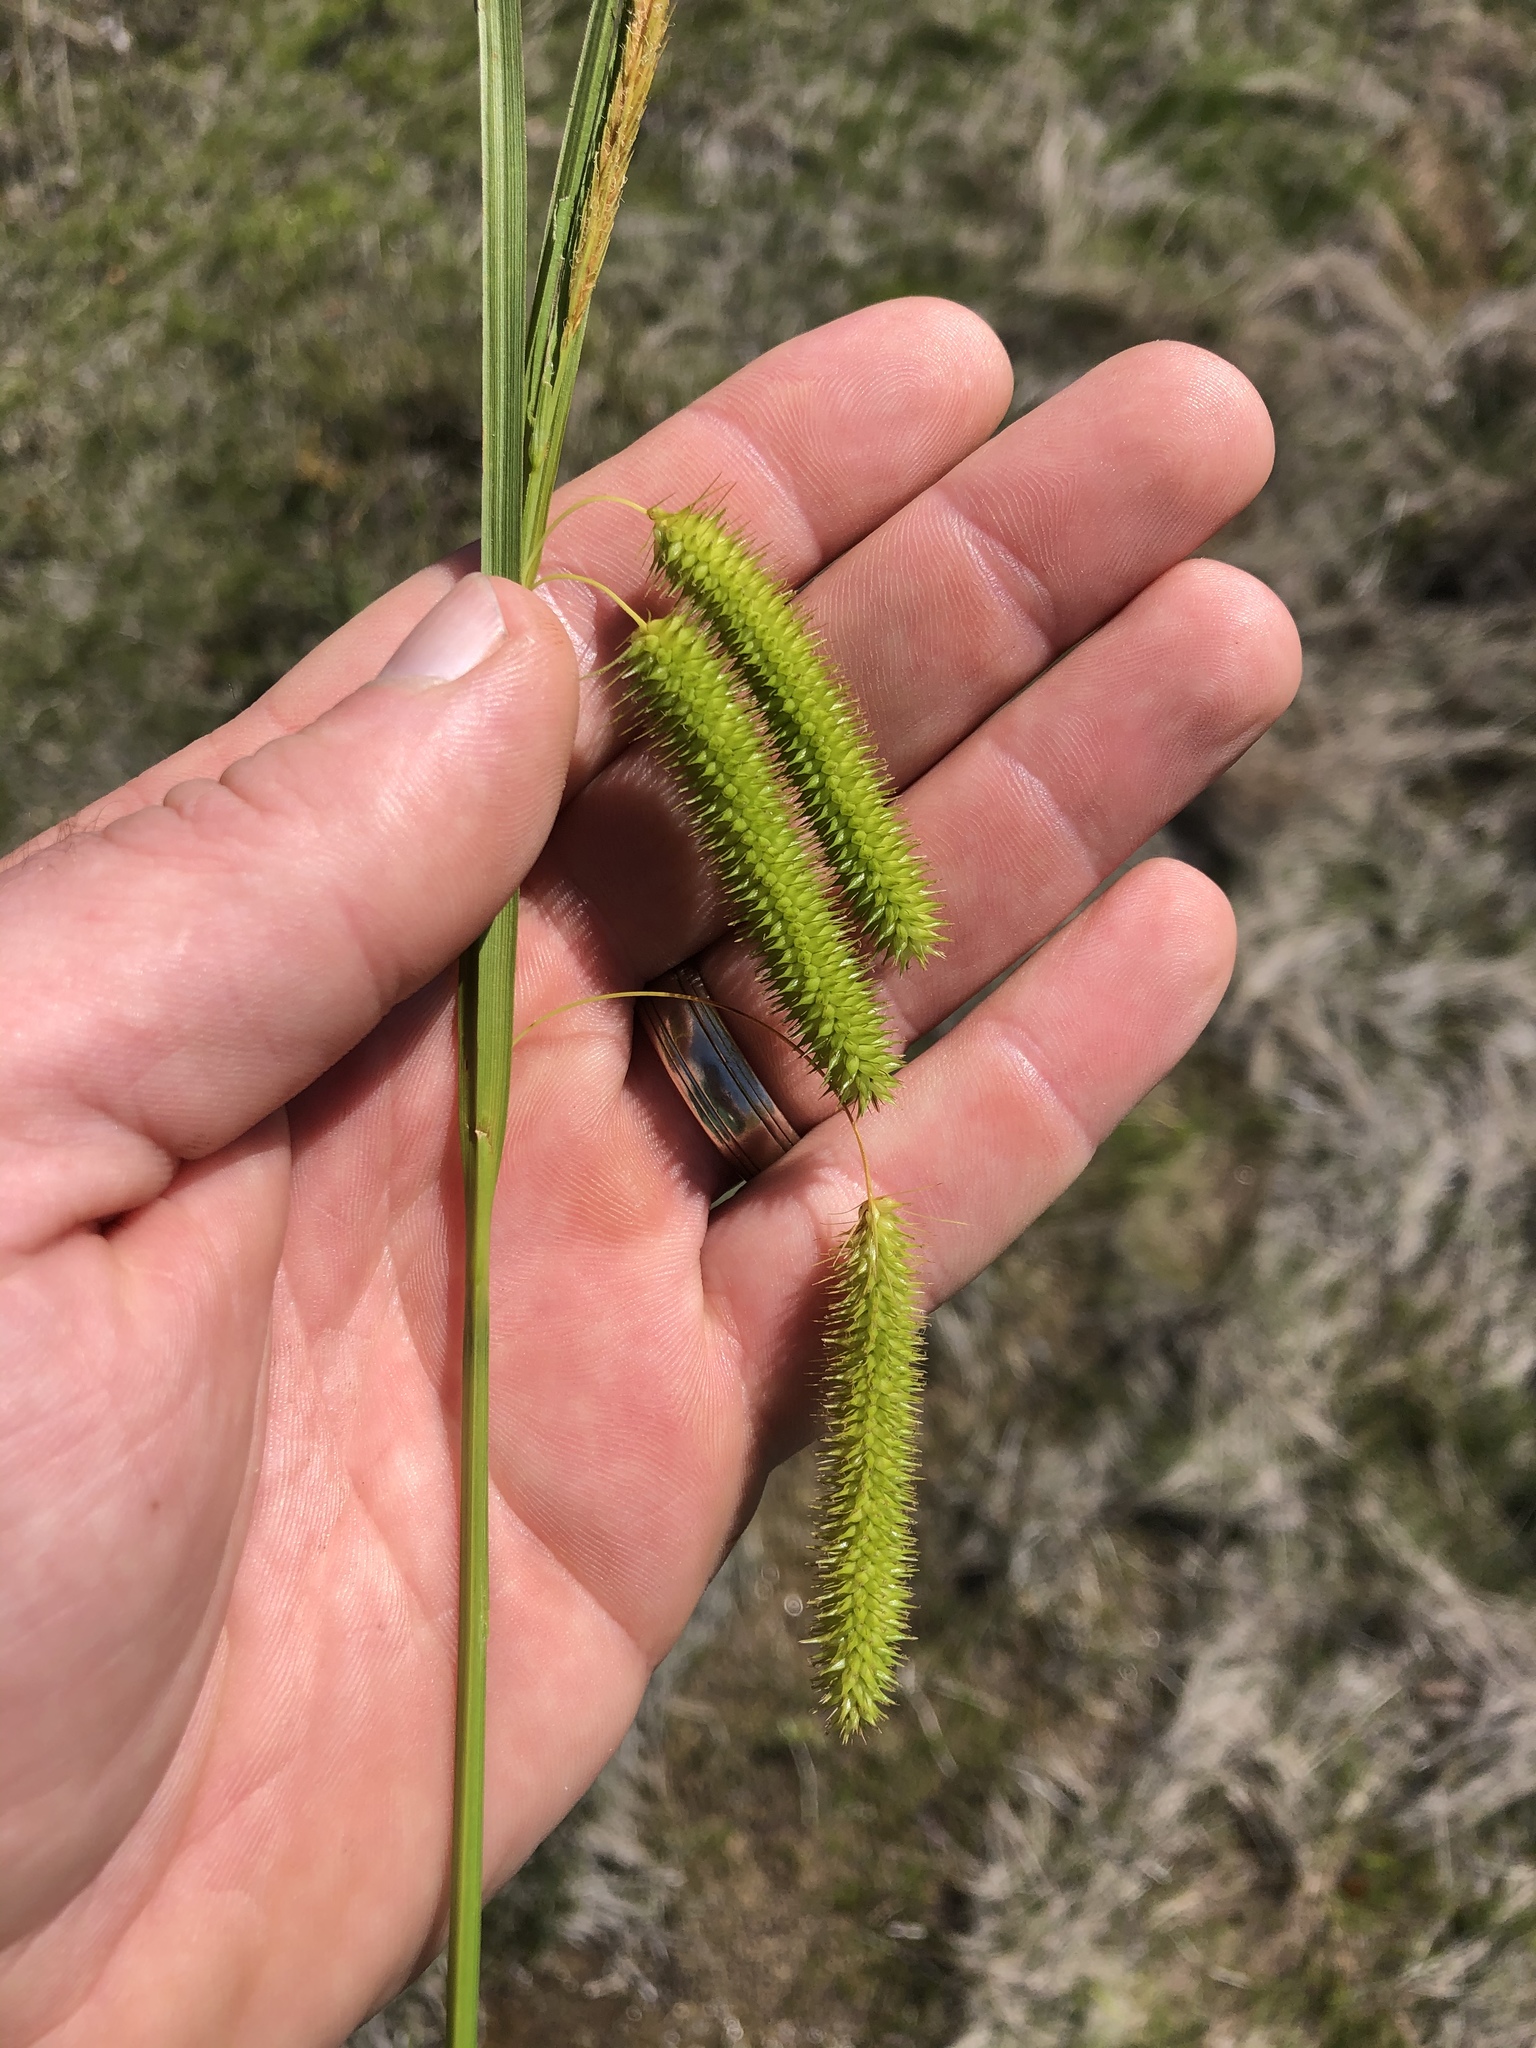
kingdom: Plantae
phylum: Tracheophyta
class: Liliopsida
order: Poales
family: Cyperaceae
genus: Carex
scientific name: Carex pseudocyperus
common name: Cyperus sedge
